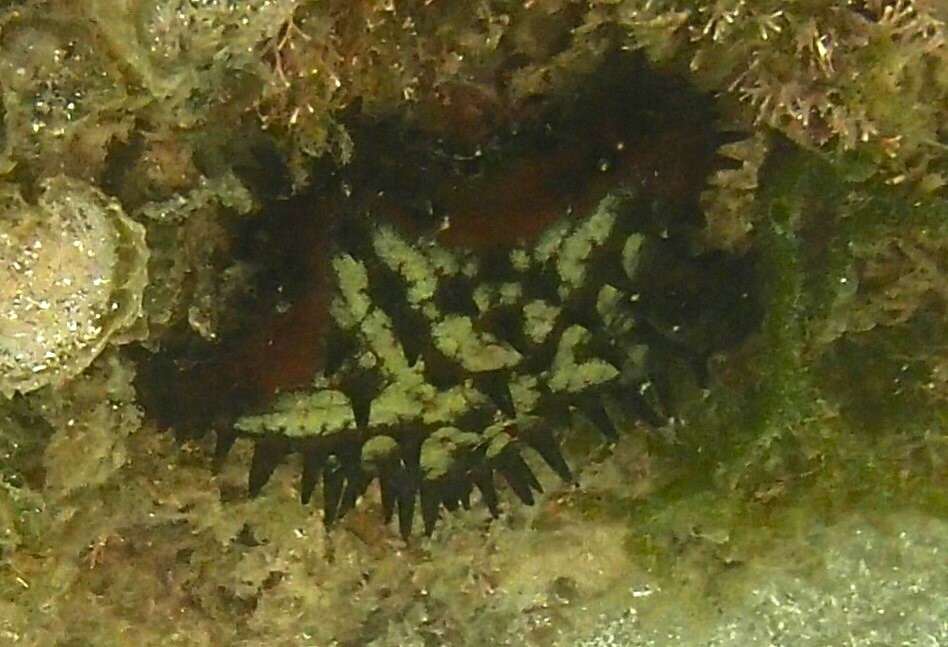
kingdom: Animalia
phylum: Echinodermata
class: Asteroidea
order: Valvatida
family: Oreasteridae
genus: Nidorellia
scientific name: Nidorellia armata
